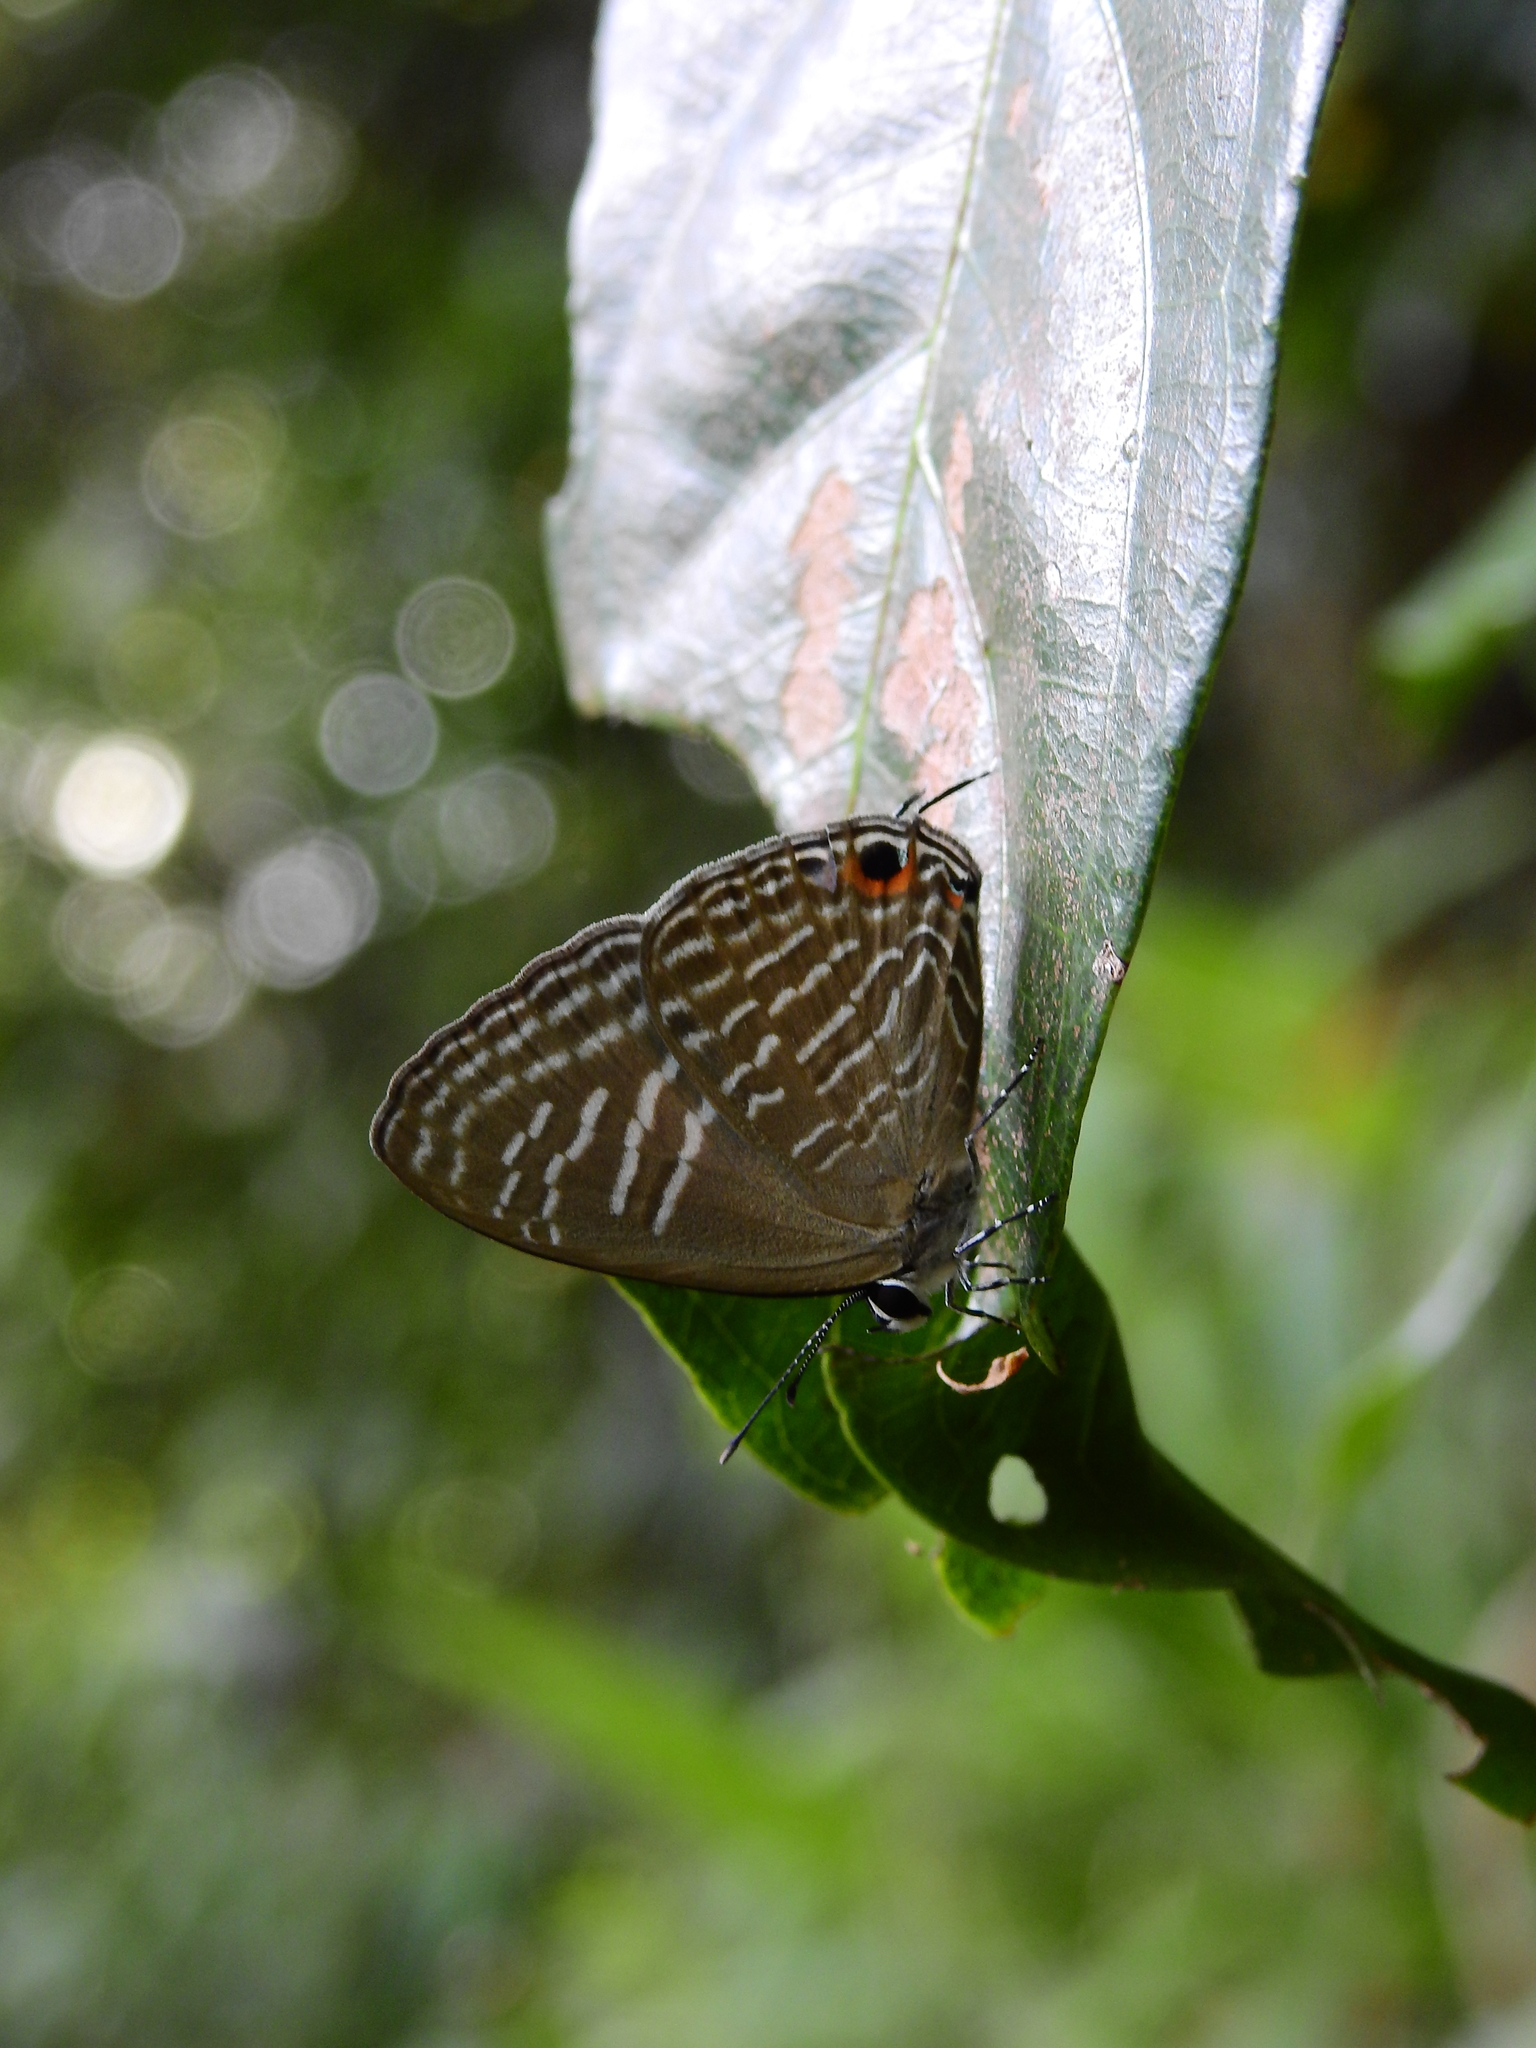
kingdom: Animalia
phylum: Arthropoda
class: Insecta
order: Lepidoptera
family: Lycaenidae
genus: Jamides
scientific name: Jamides alecto
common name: Metallic cerulean
